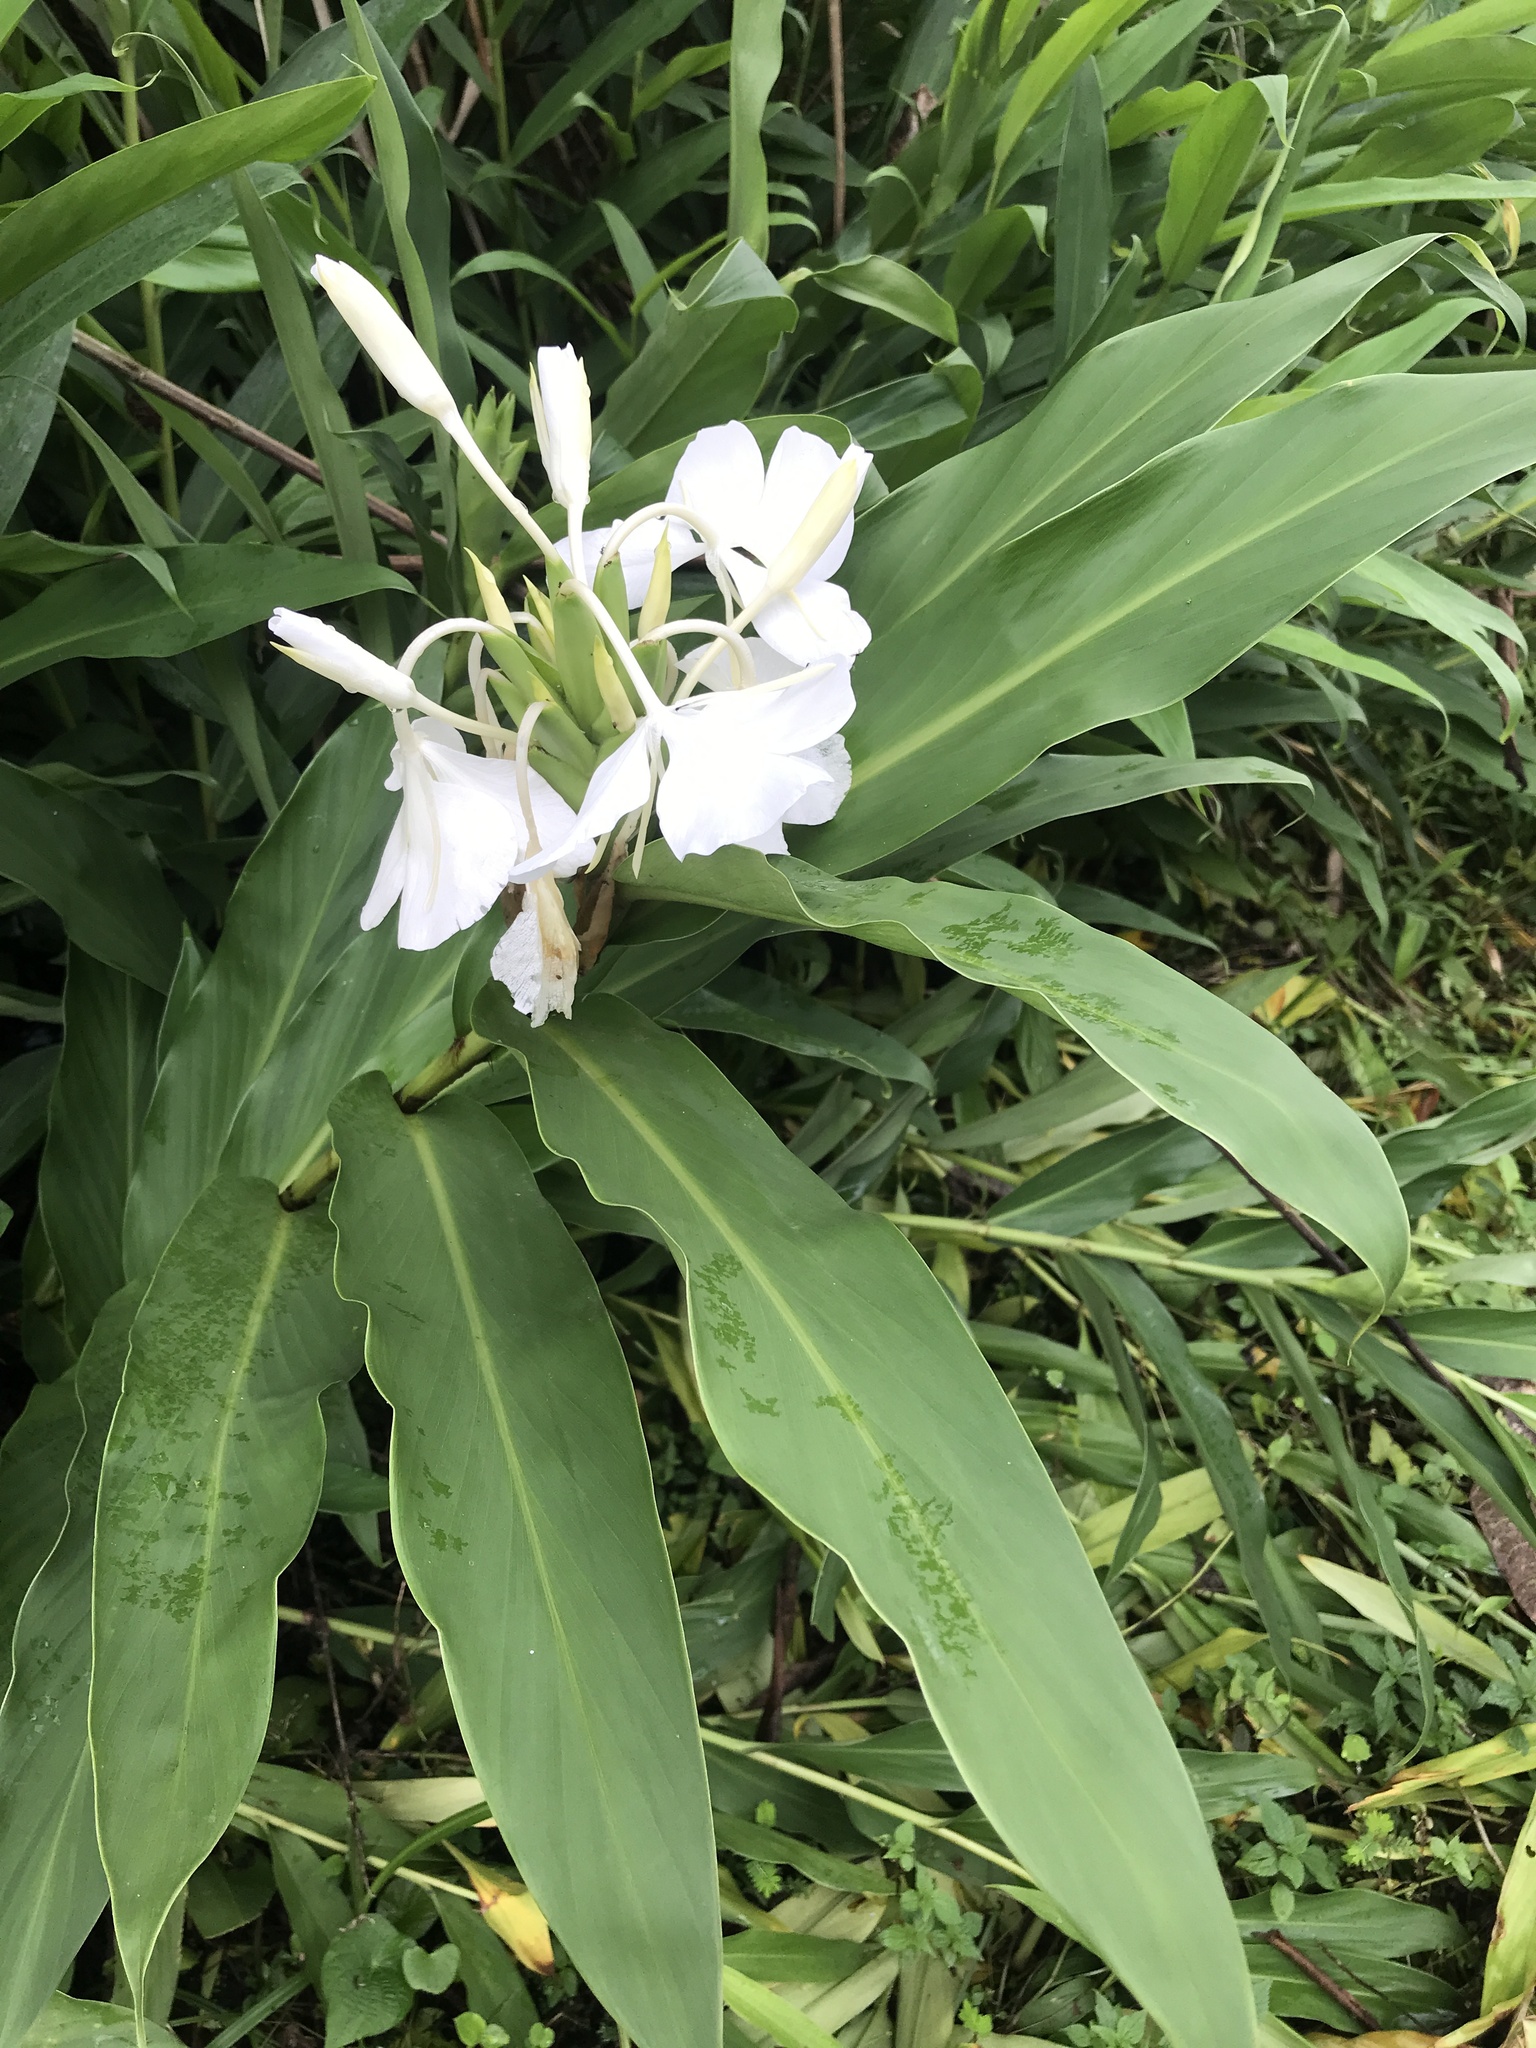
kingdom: Plantae
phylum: Tracheophyta
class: Liliopsida
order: Zingiberales
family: Zingiberaceae
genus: Hedychium
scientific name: Hedychium coronarium
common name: White garland-lily
